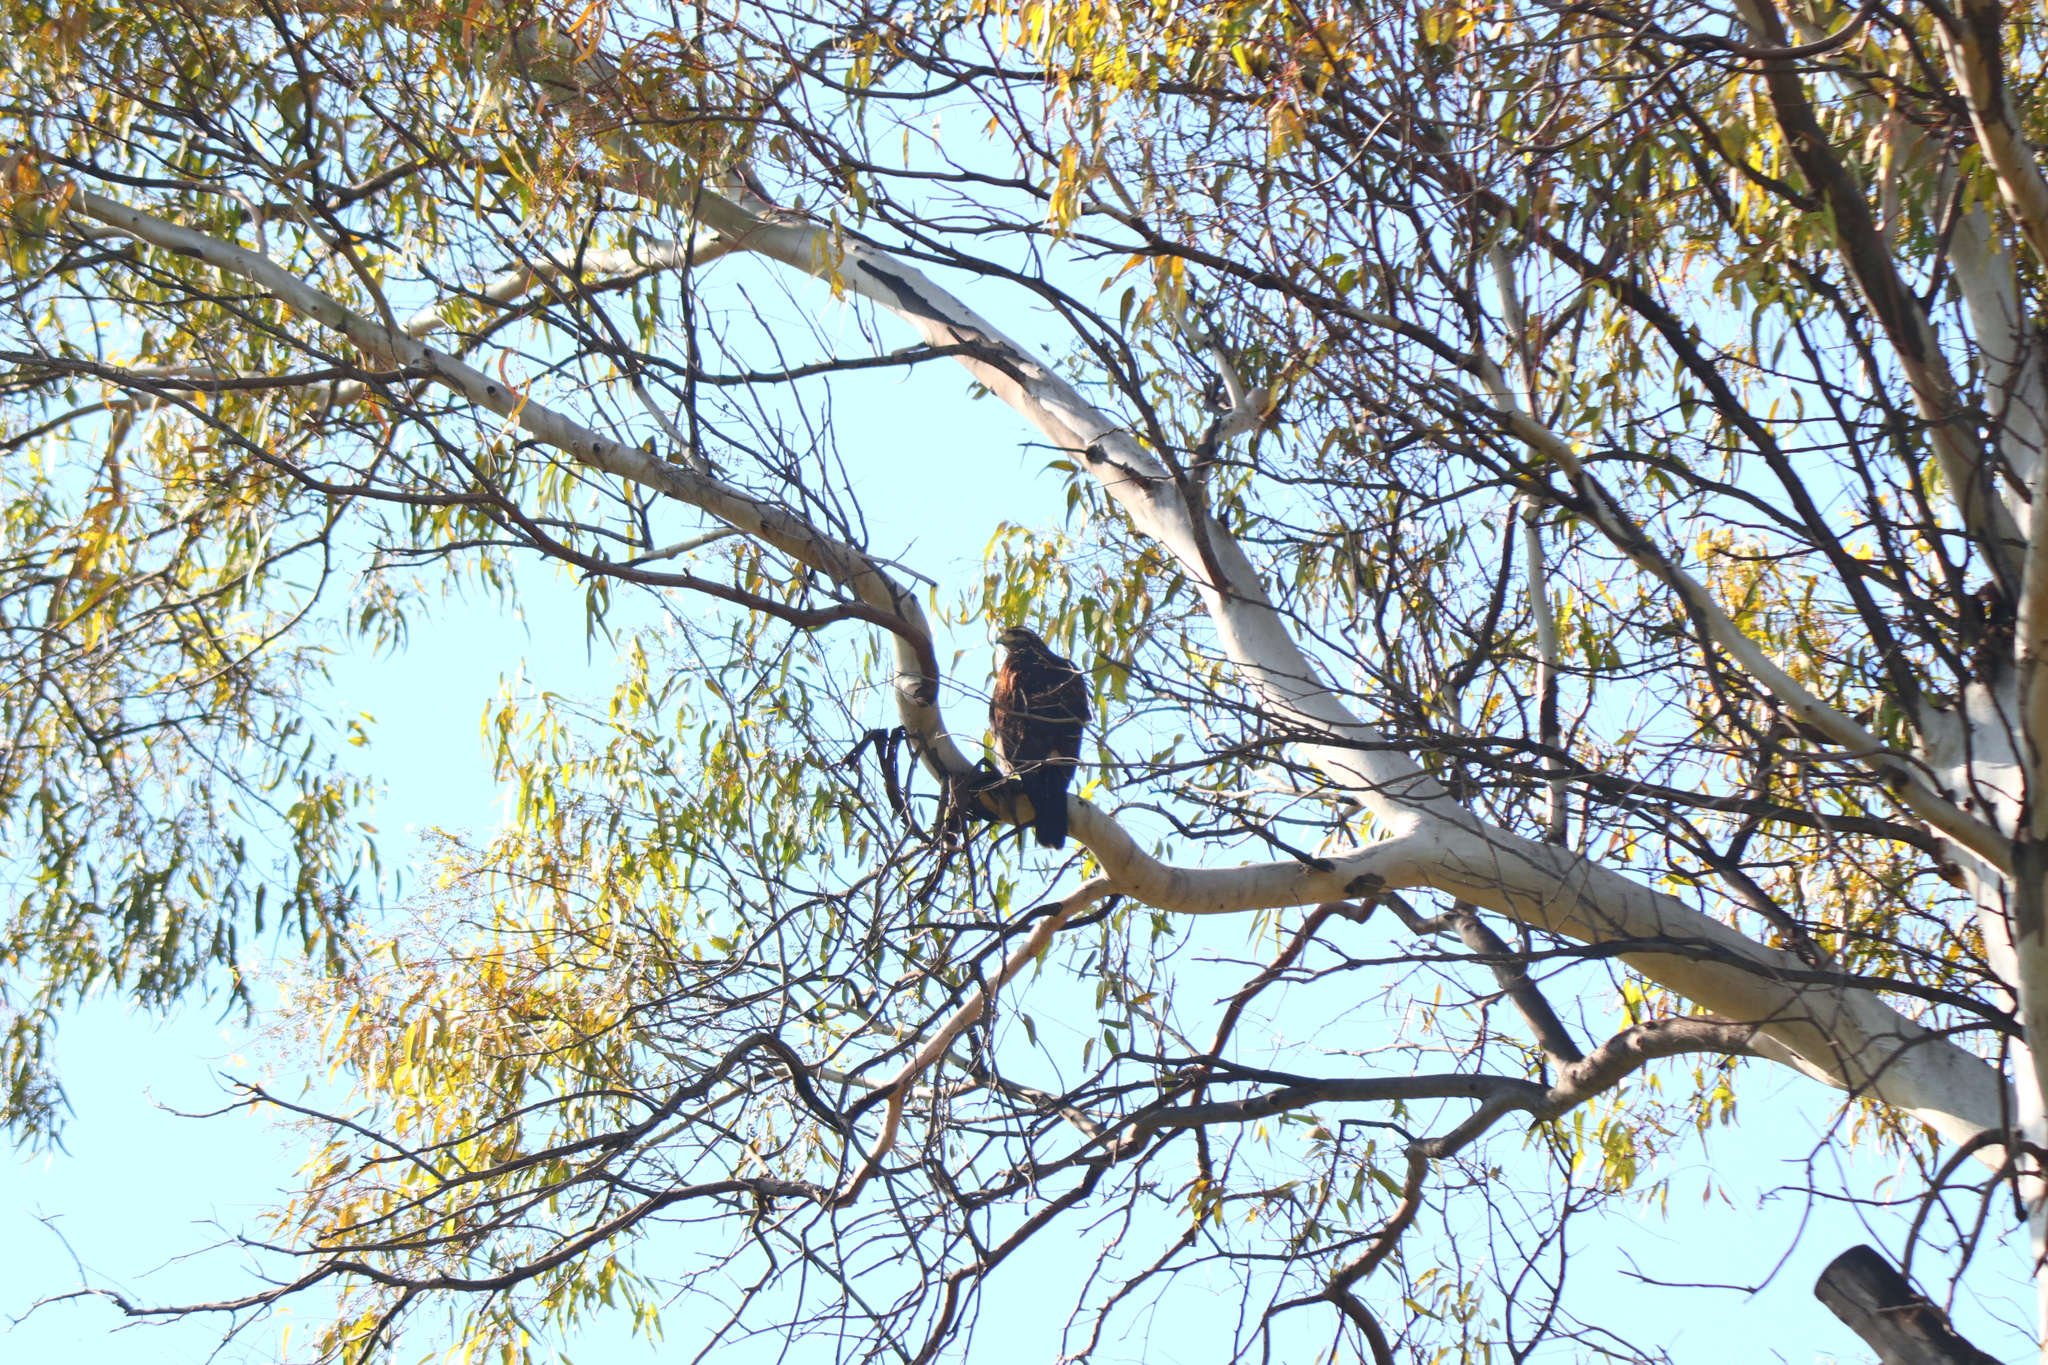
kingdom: Animalia
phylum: Chordata
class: Aves
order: Accipitriformes
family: Accipitridae
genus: Parabuteo
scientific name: Parabuteo unicinctus
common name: Harris's hawk
